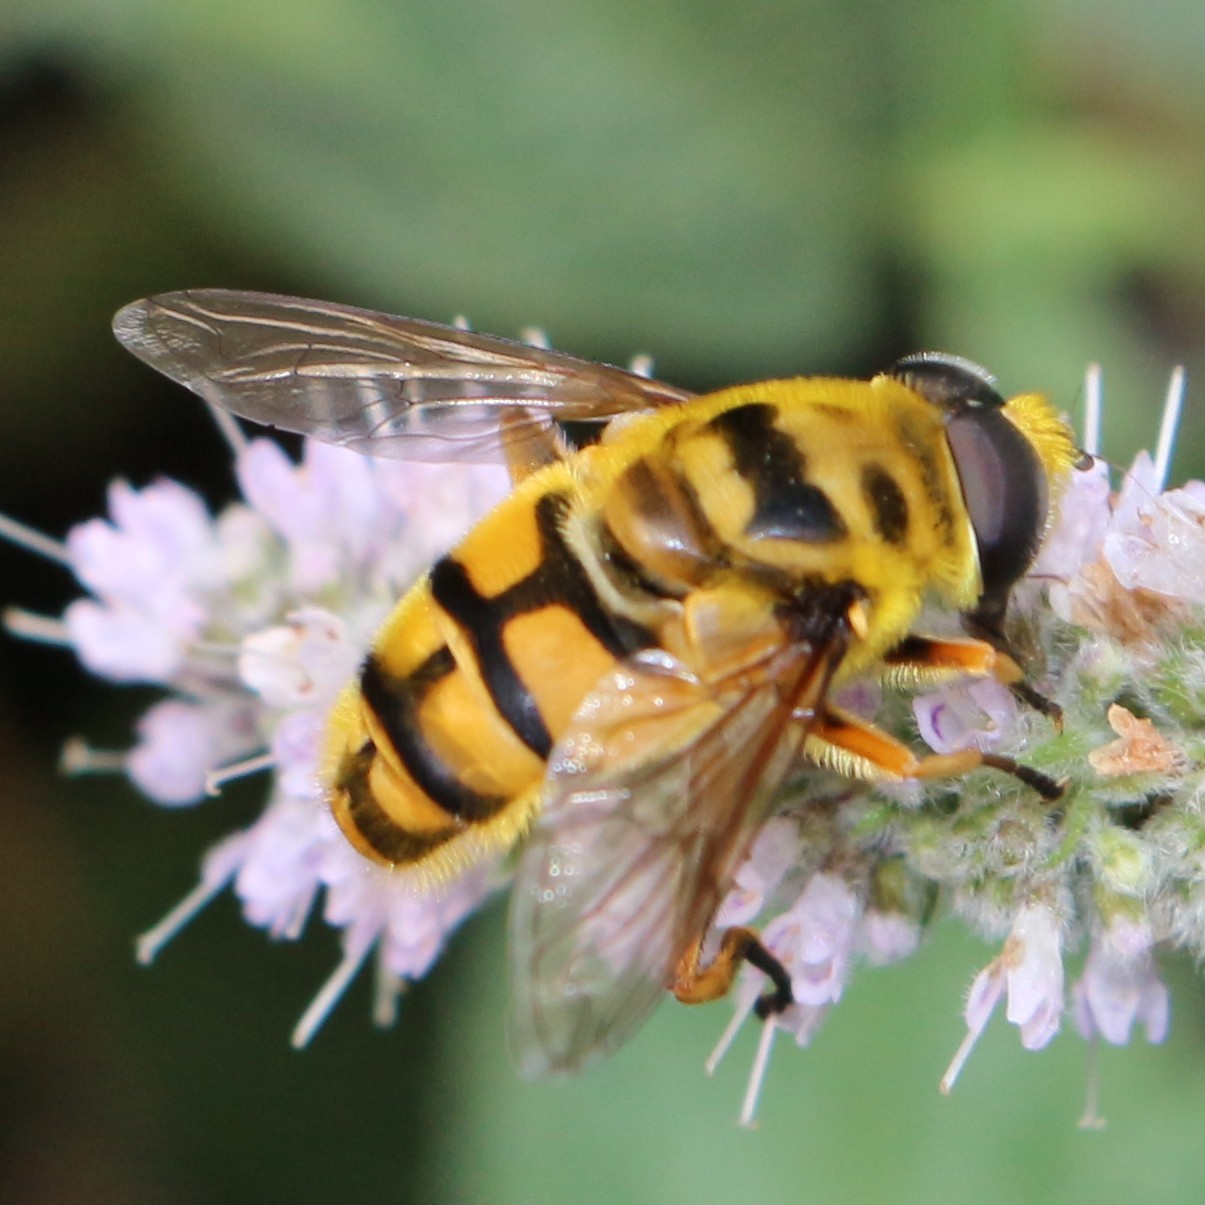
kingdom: Animalia
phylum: Arthropoda
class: Insecta
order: Diptera
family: Syrphidae
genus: Myathropa
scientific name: Myathropa florea
